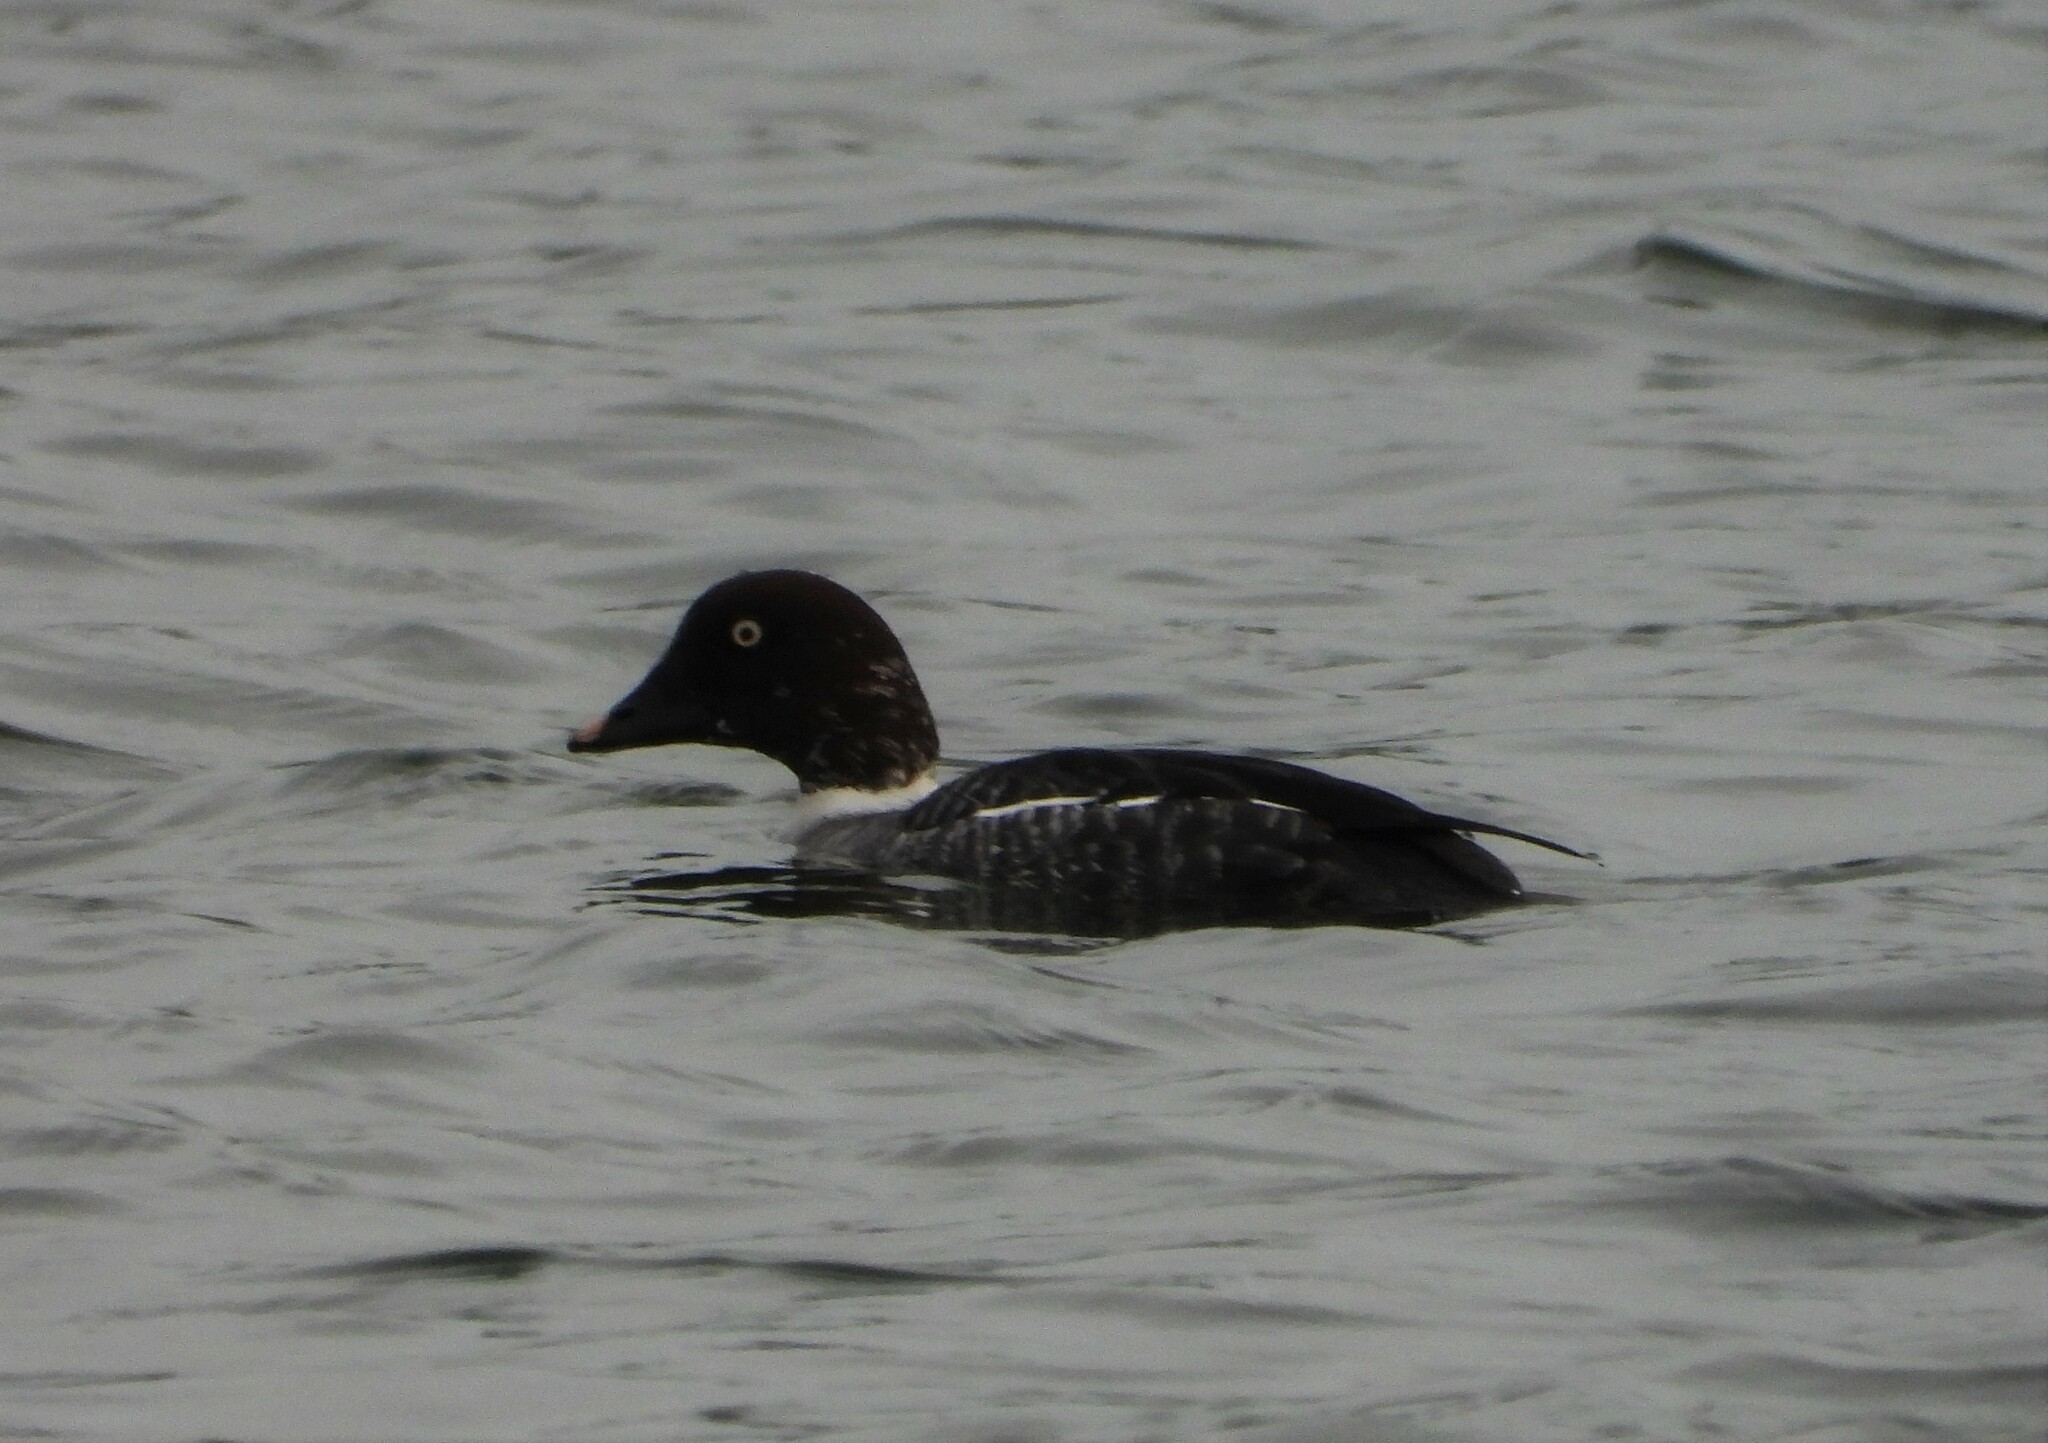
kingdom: Animalia
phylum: Chordata
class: Aves
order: Anseriformes
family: Anatidae
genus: Bucephala
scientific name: Bucephala clangula
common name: Common goldeneye
